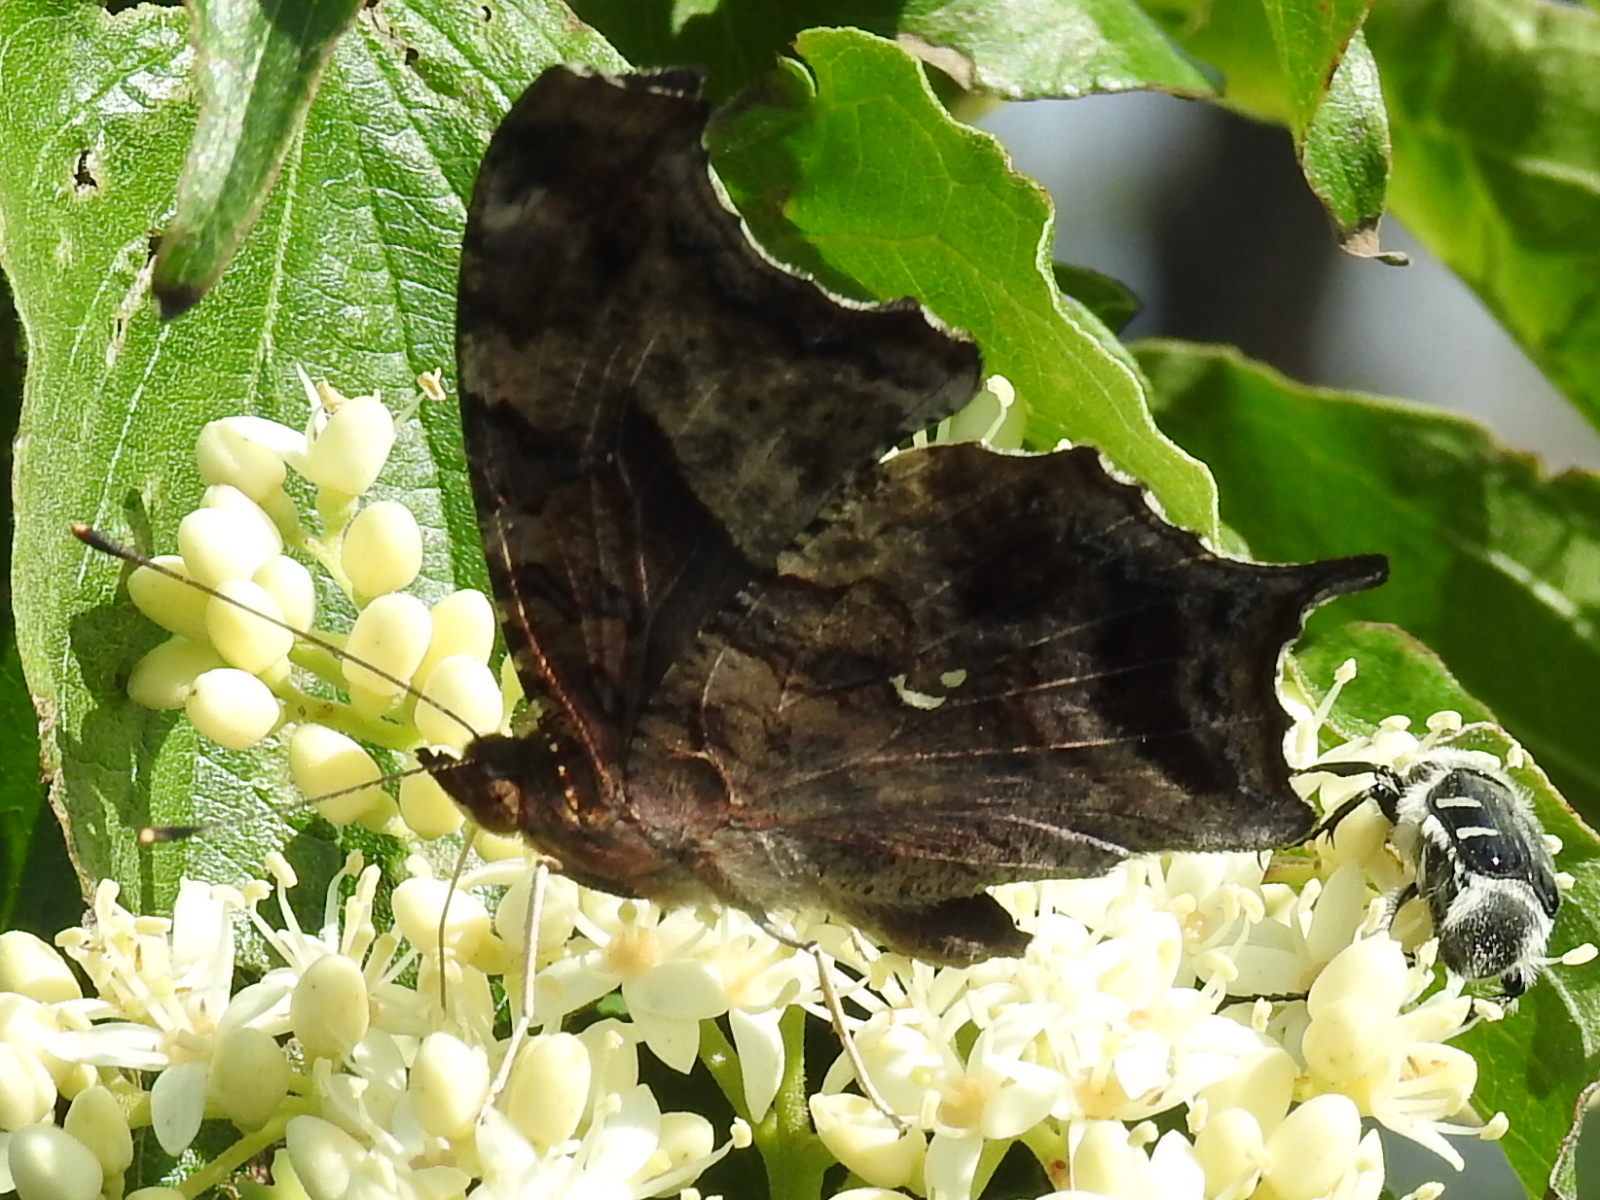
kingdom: Animalia
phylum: Arthropoda
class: Insecta
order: Lepidoptera
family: Nymphalidae
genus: Polygonia
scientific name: Polygonia interrogationis
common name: Question mark
